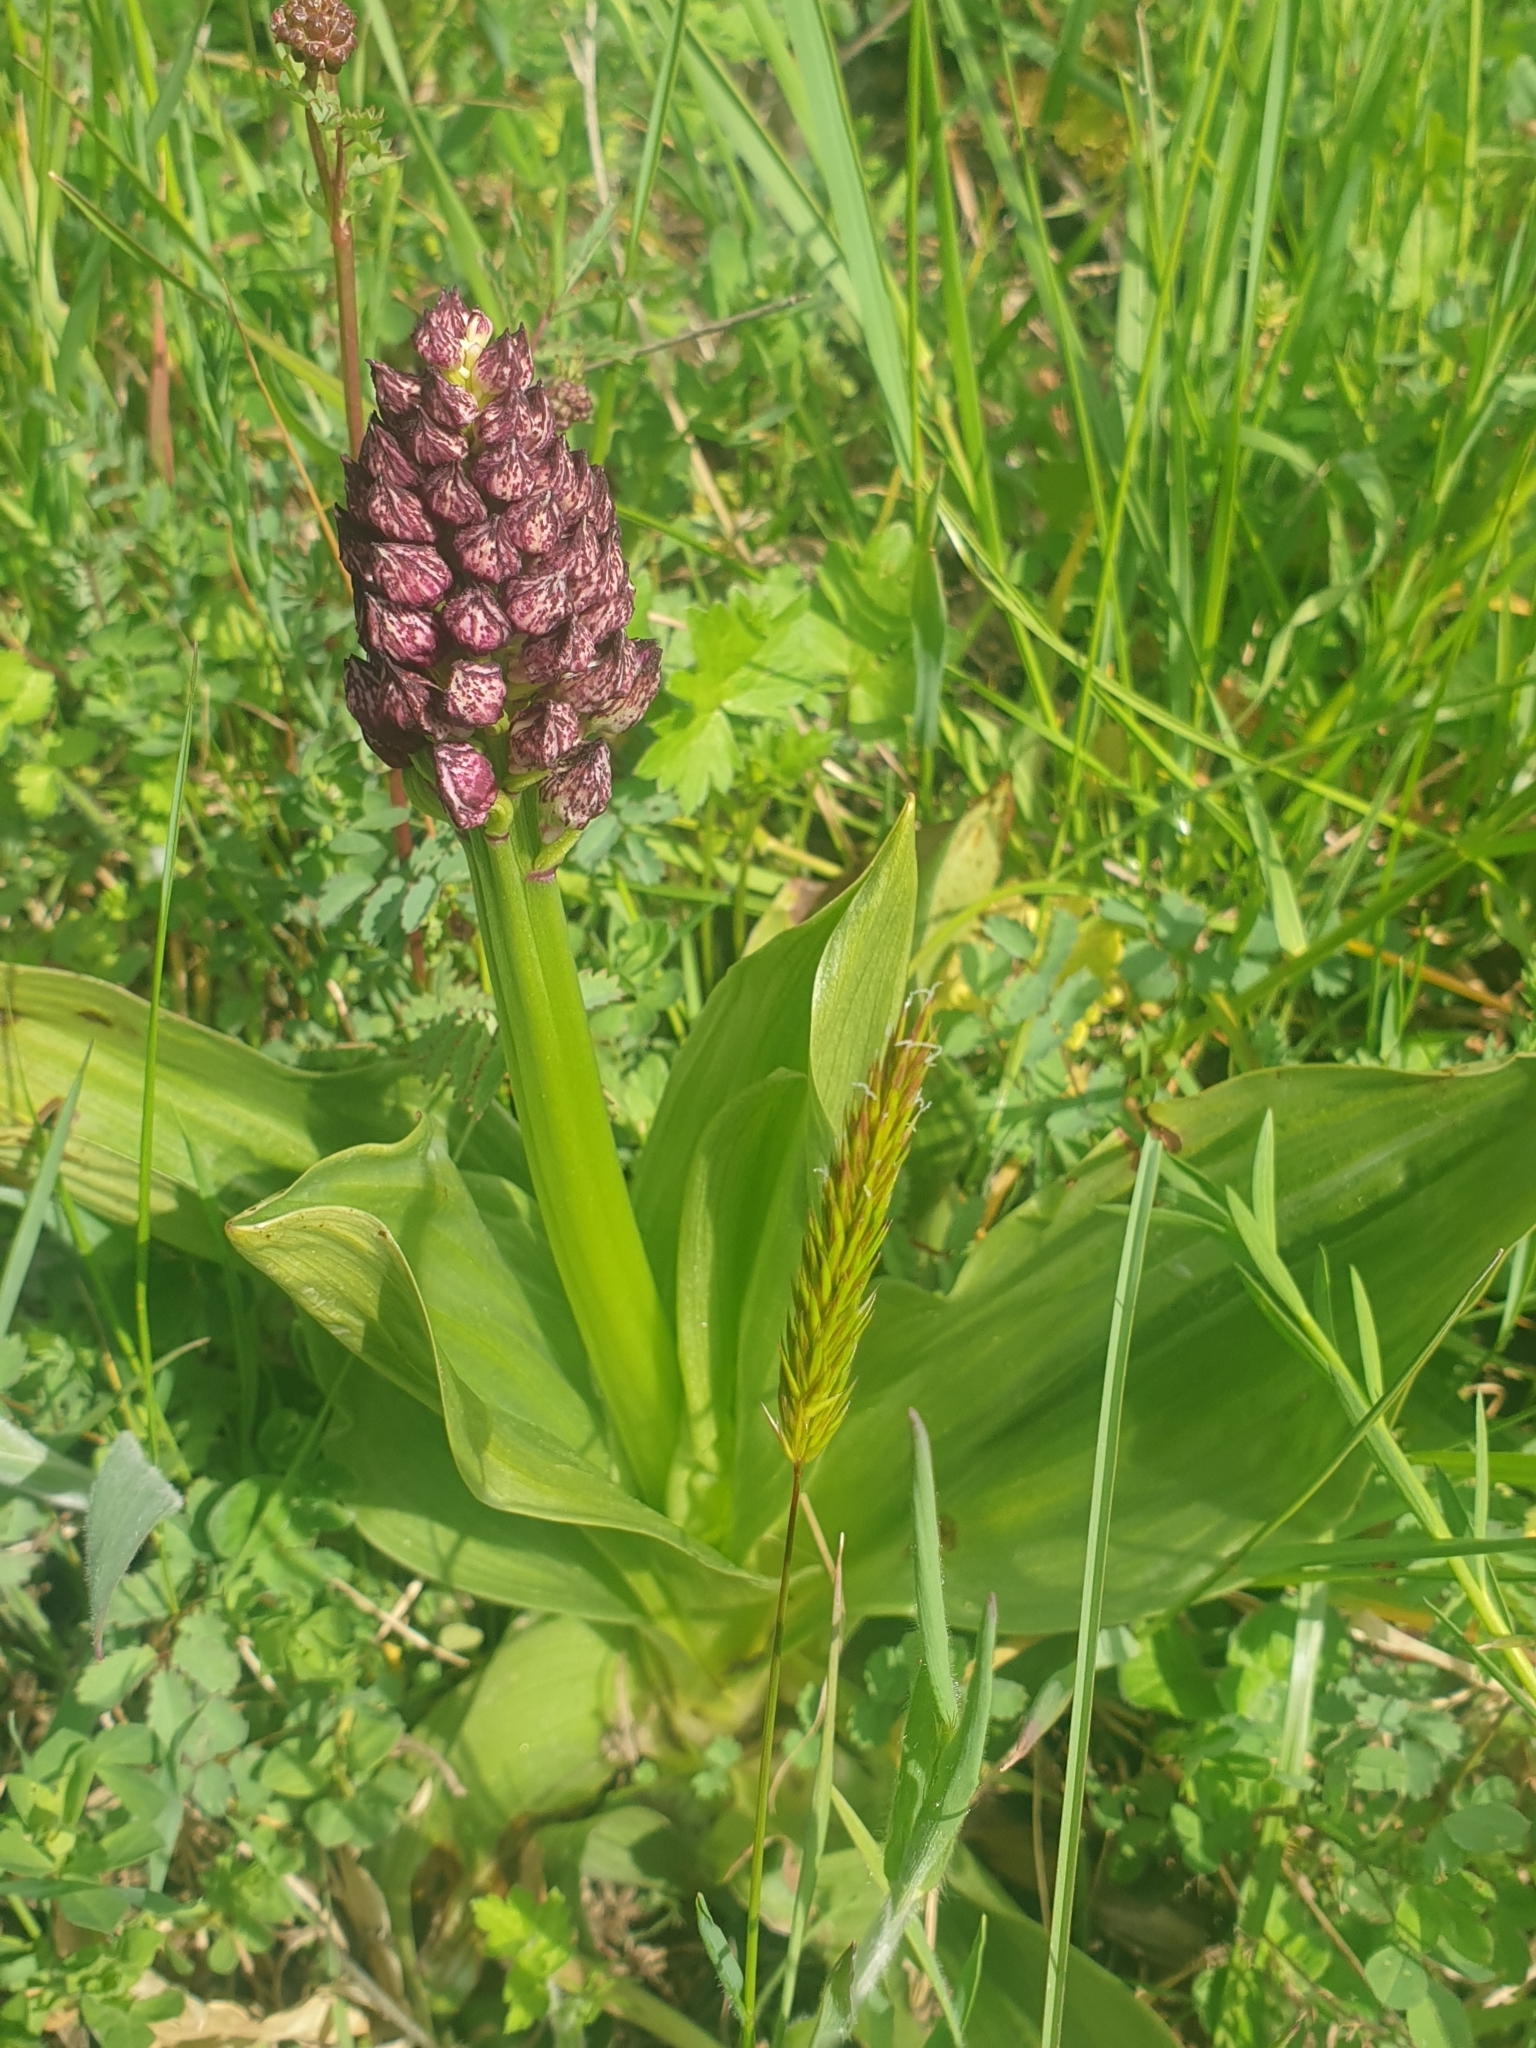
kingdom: Plantae
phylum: Tracheophyta
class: Liliopsida
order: Asparagales
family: Orchidaceae
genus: Orchis
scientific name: Orchis purpurea
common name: Lady orchid
